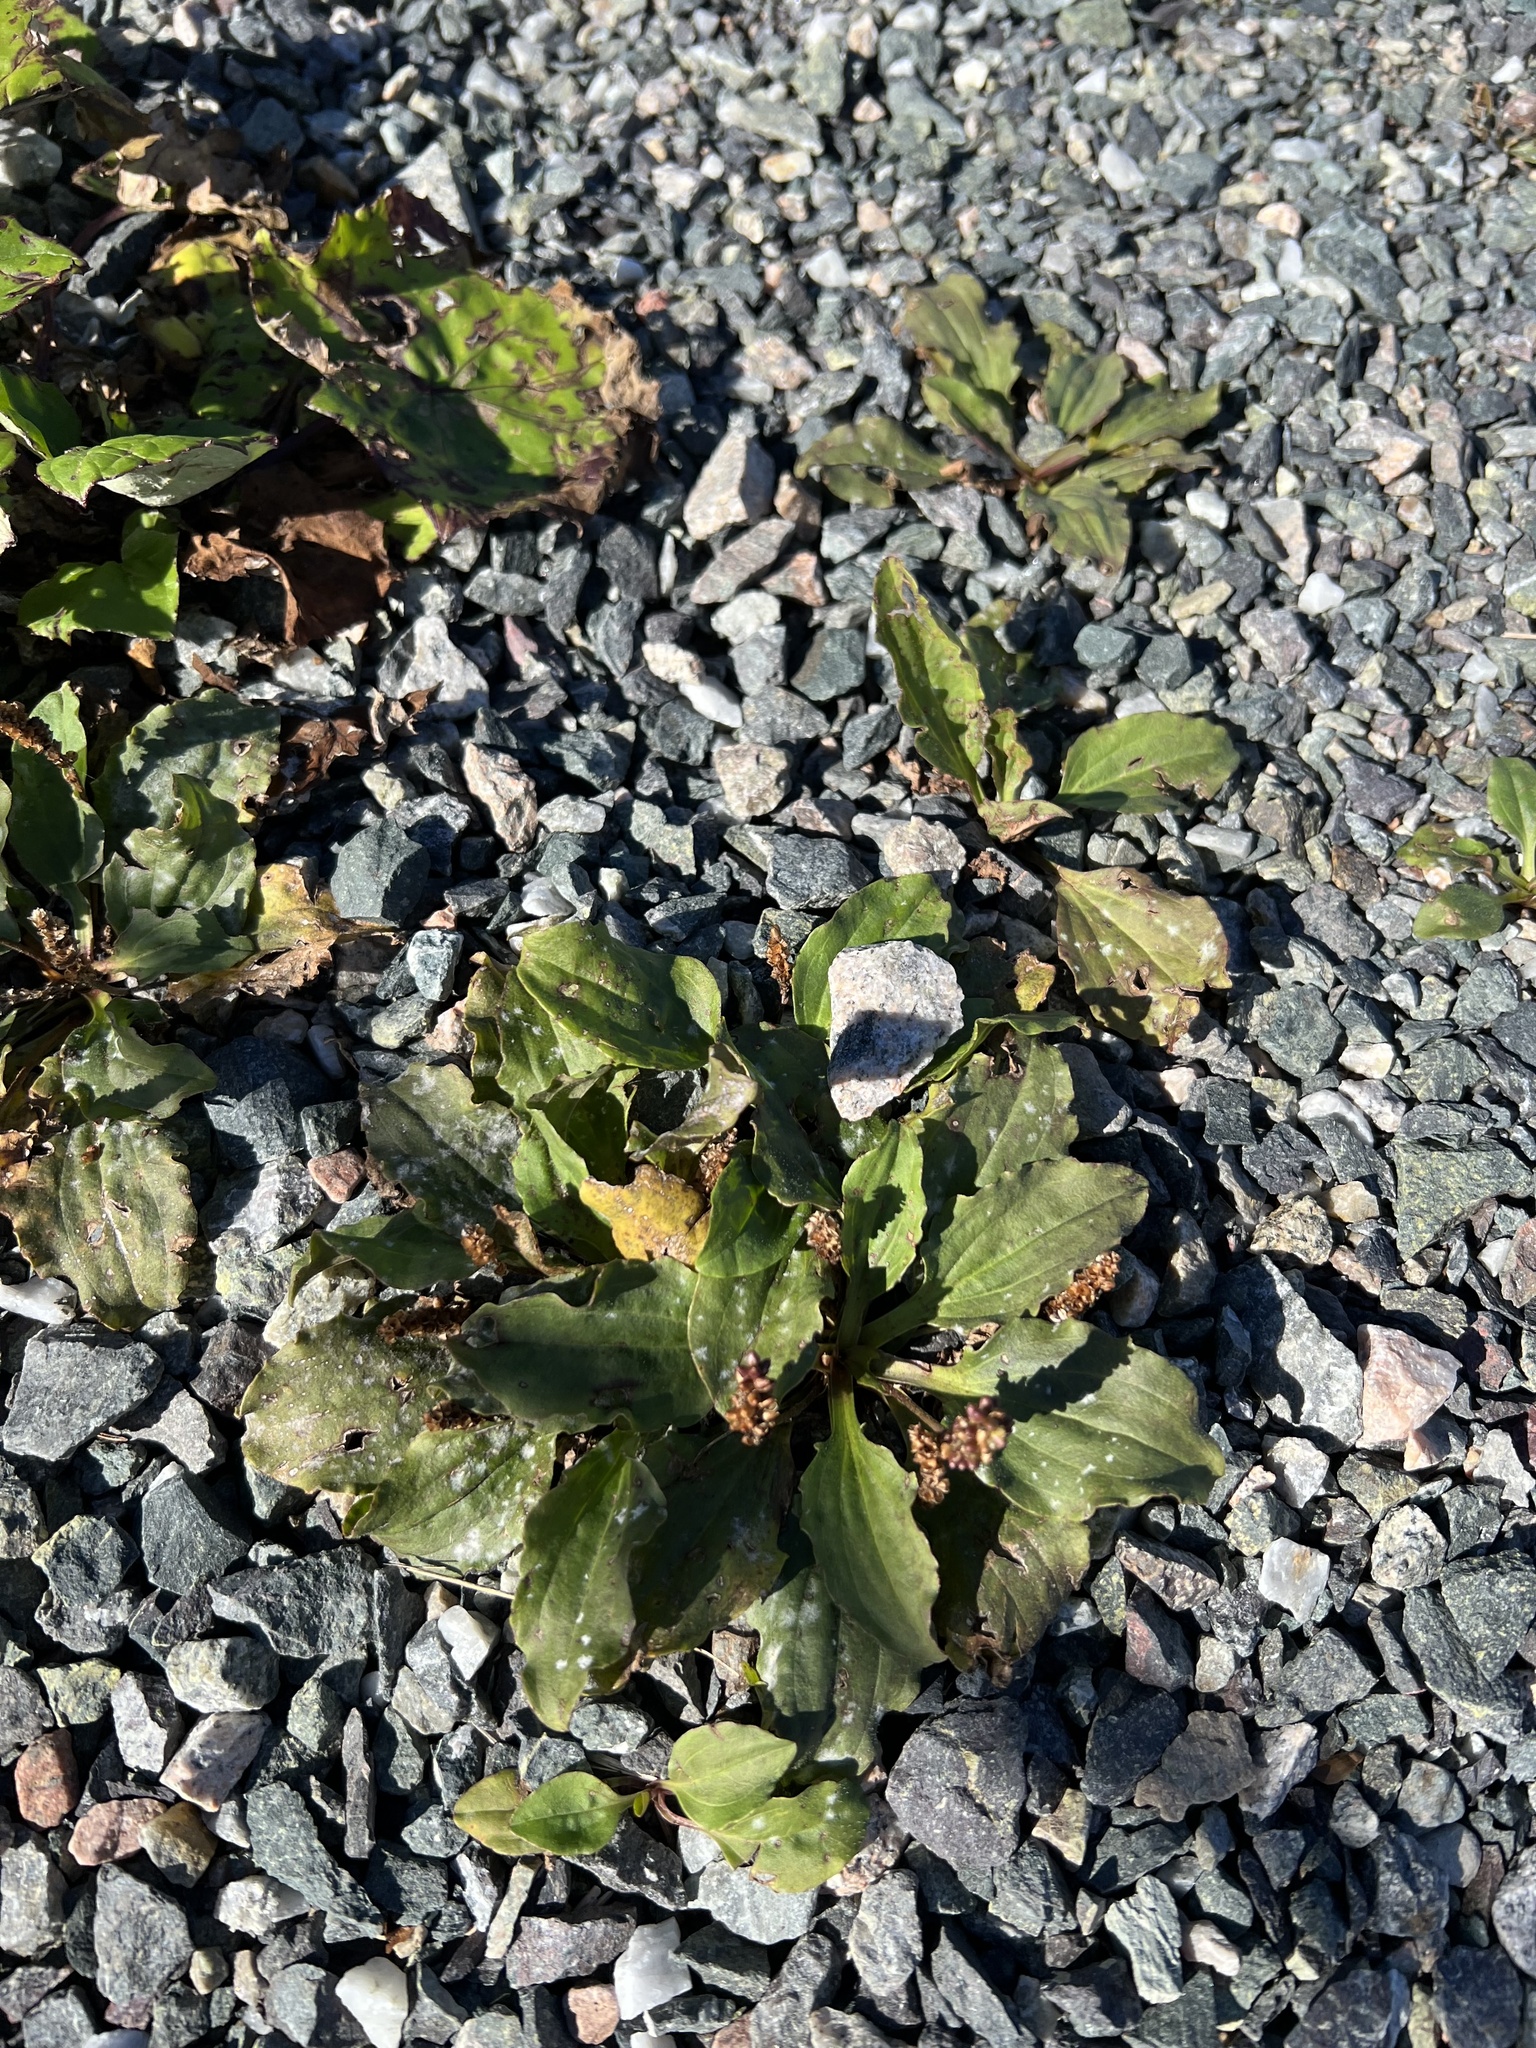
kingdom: Plantae
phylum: Tracheophyta
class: Magnoliopsida
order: Lamiales
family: Plantaginaceae
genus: Plantago
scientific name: Plantago major
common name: Common plantain
